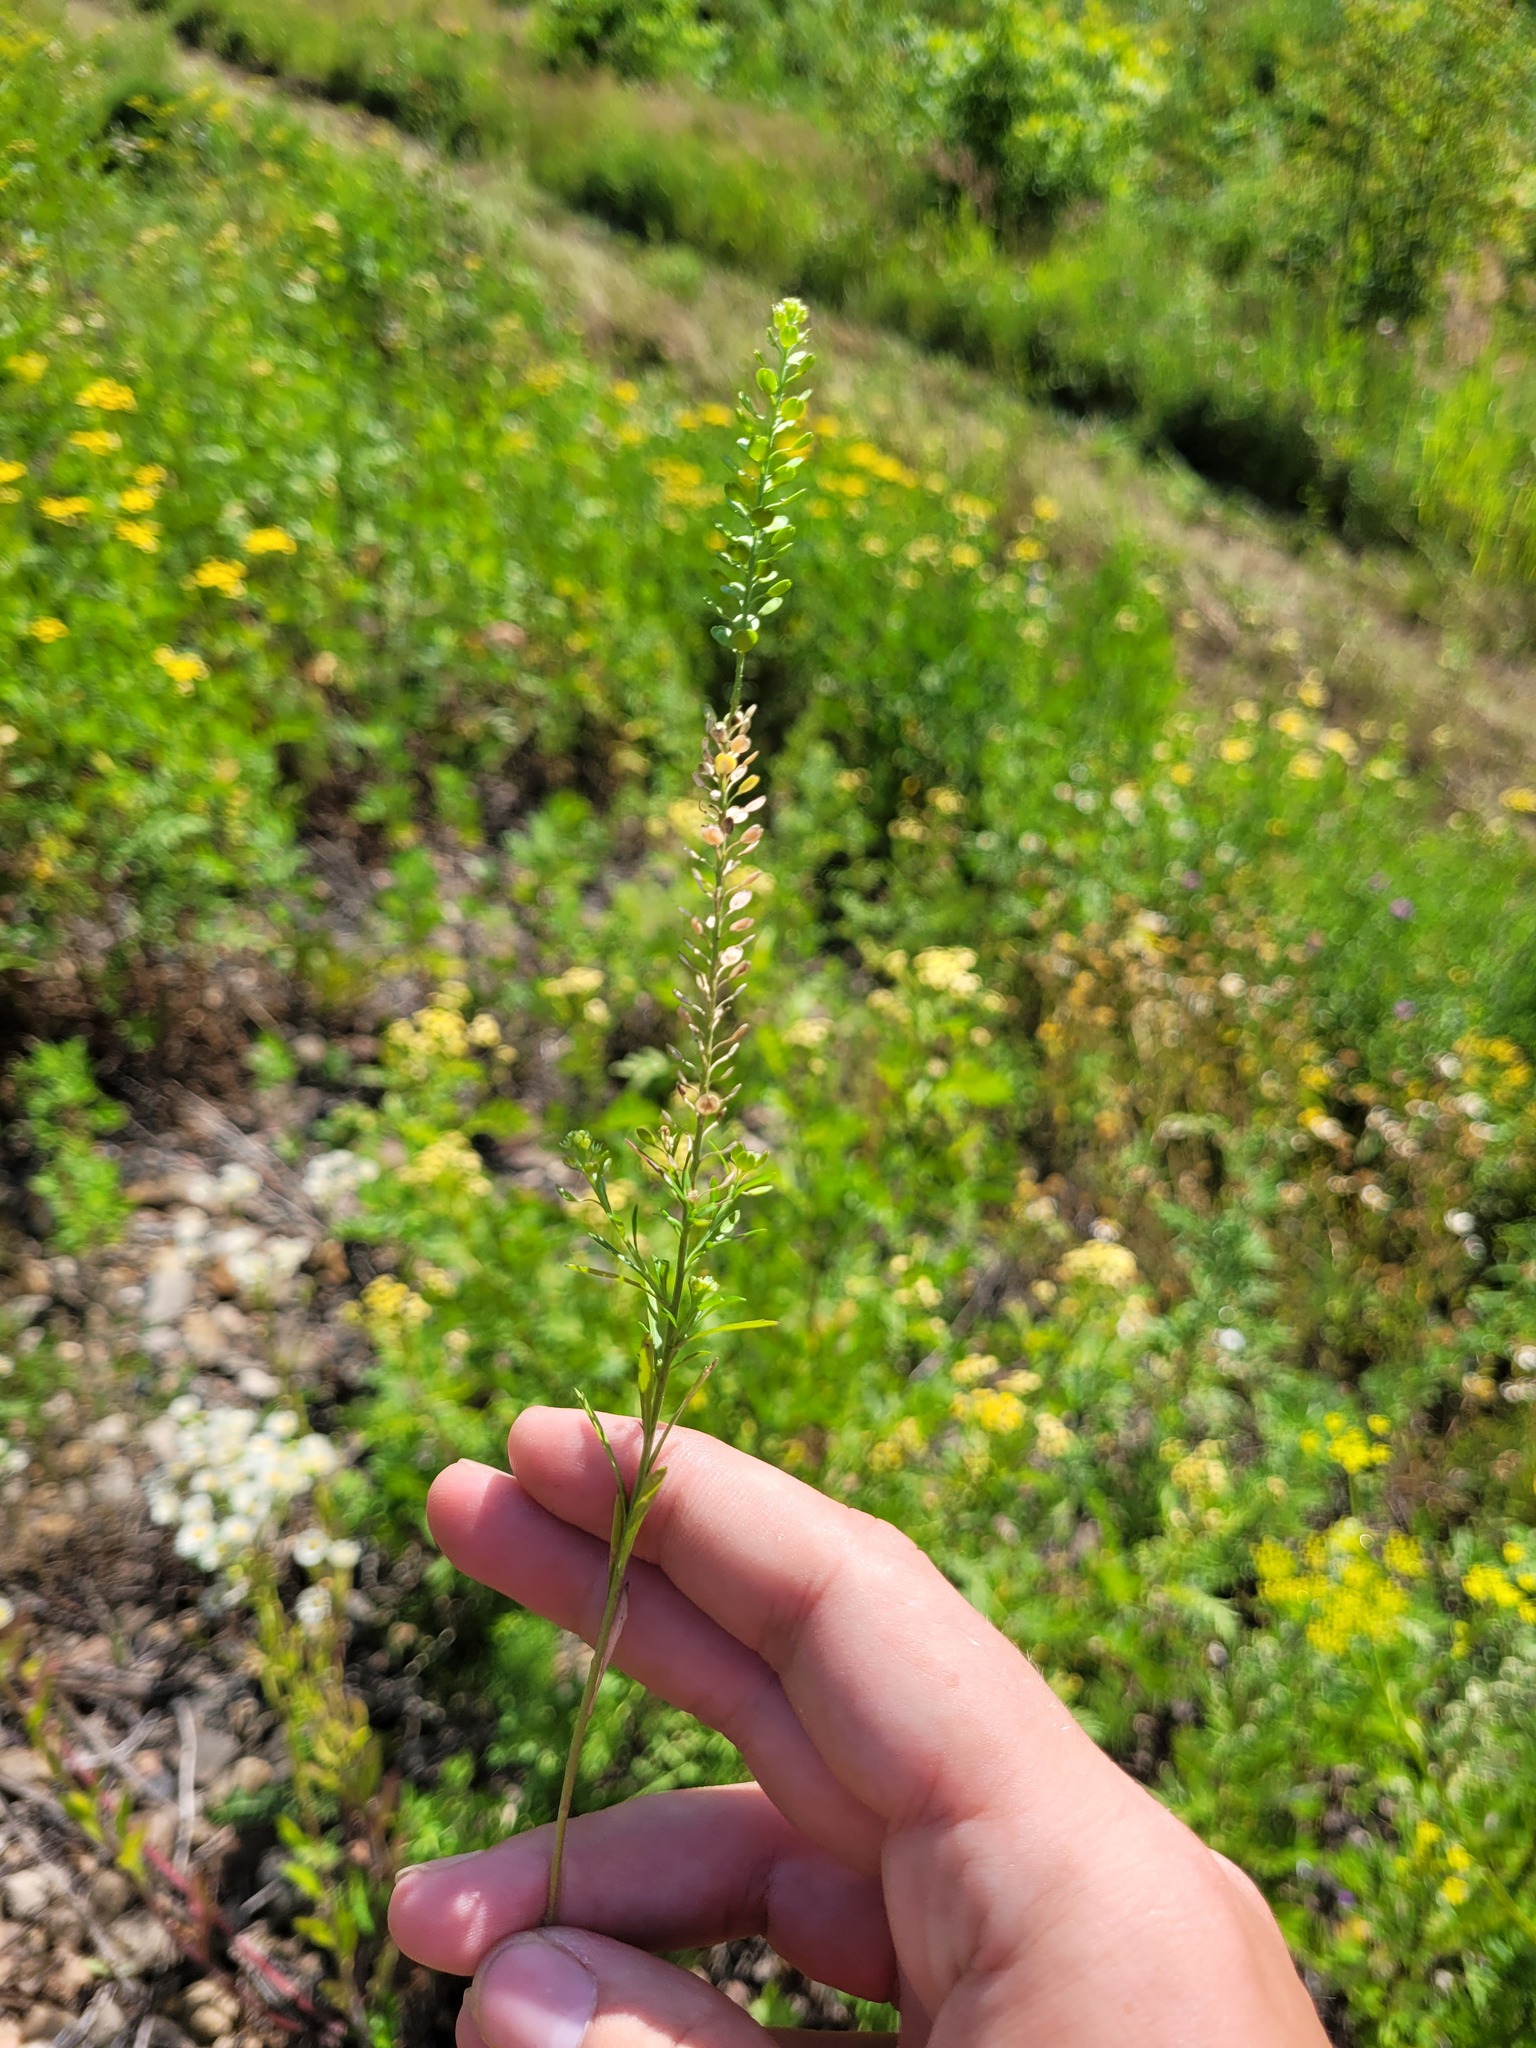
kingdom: Plantae
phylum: Tracheophyta
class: Magnoliopsida
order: Brassicales
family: Brassicaceae
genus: Lepidium
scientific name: Lepidium densiflorum
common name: Miner's pepperwort
